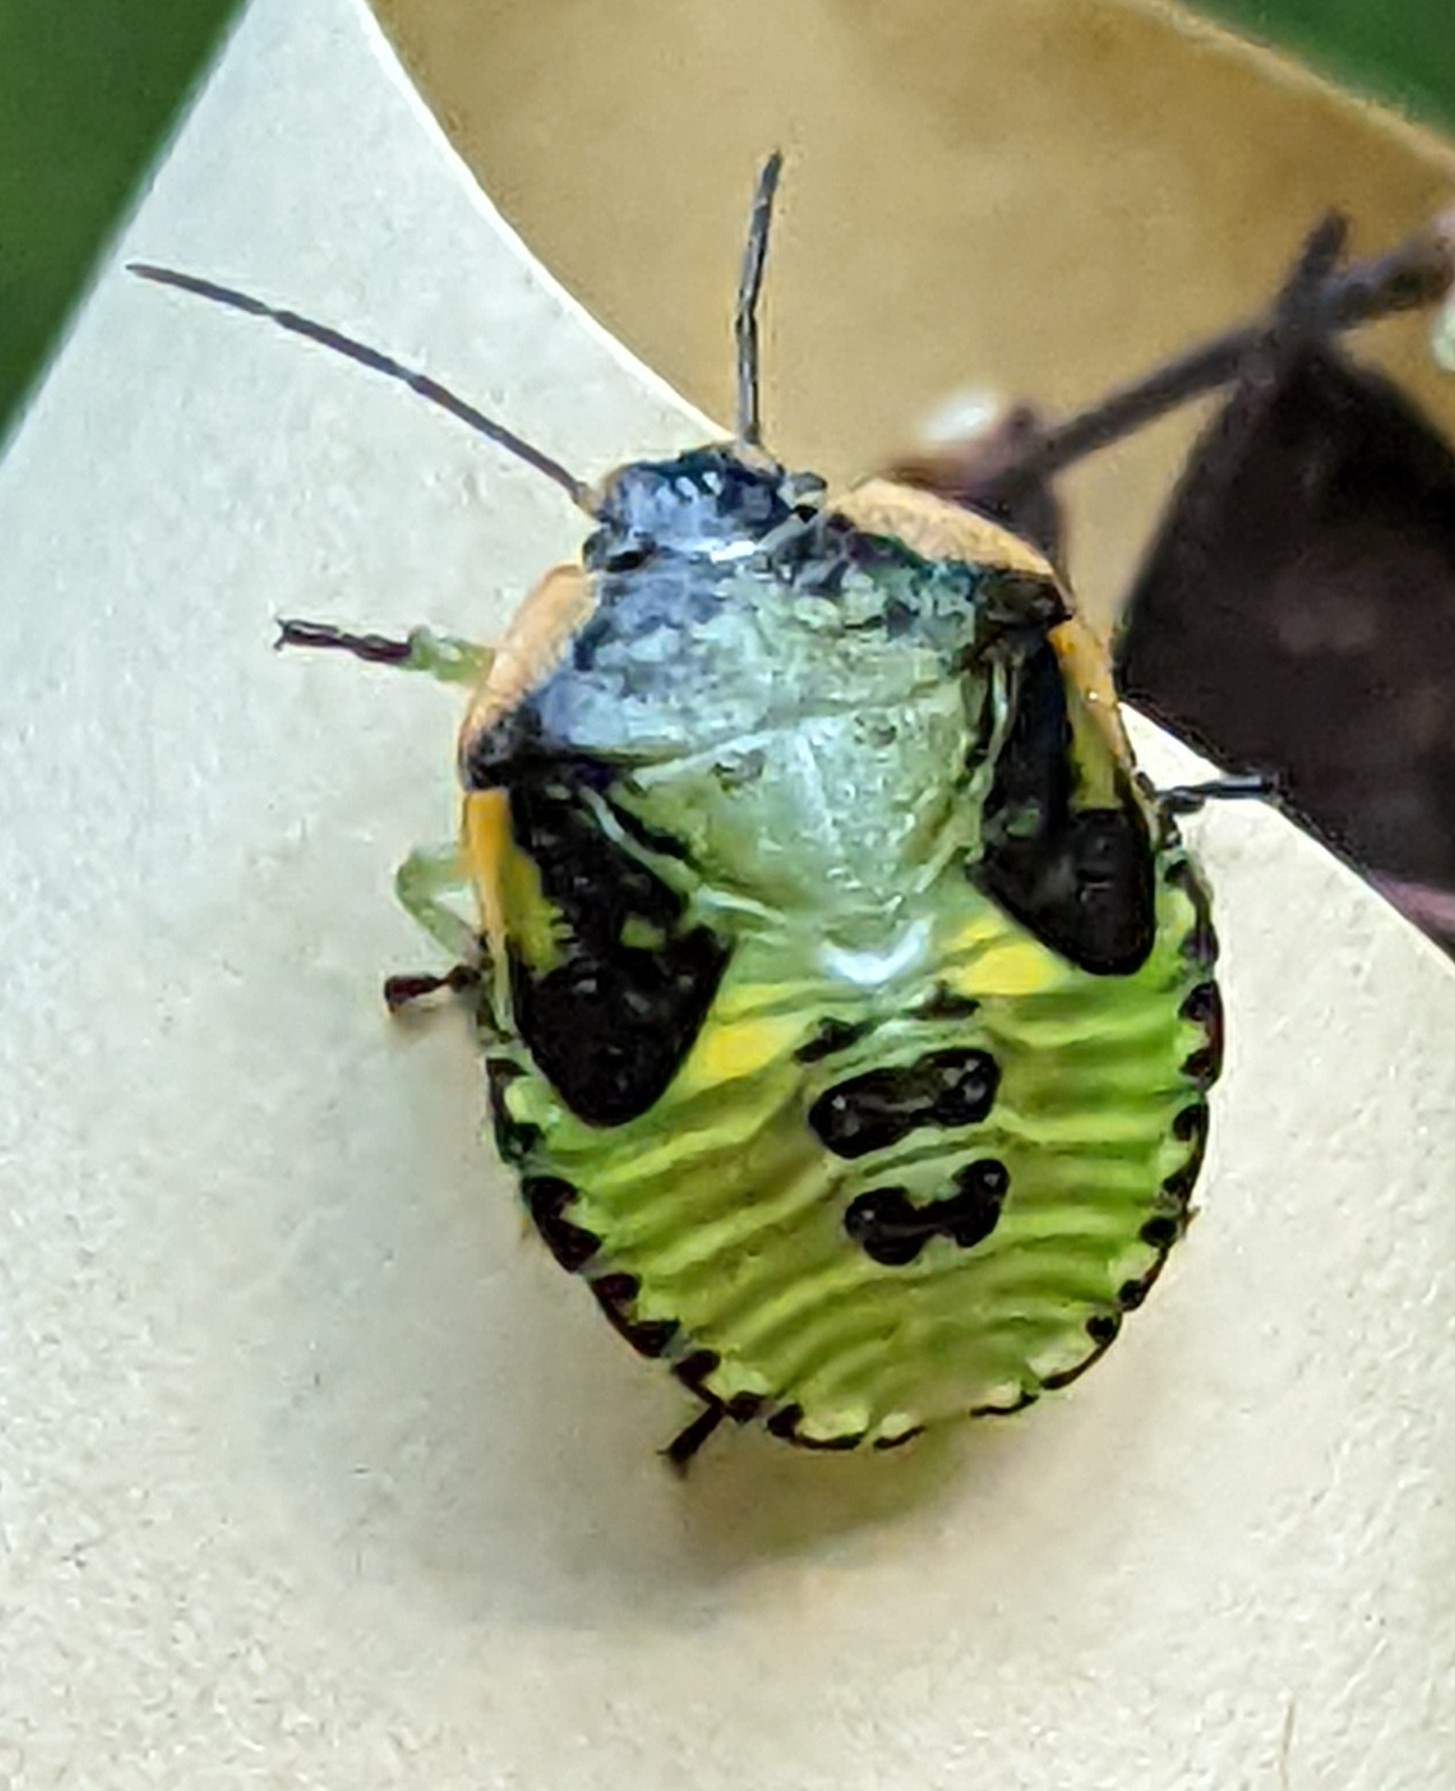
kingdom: Animalia
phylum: Arthropoda
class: Insecta
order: Hemiptera
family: Pentatomidae
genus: Chinavia
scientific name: Chinavia hilaris
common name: Green stink bug
